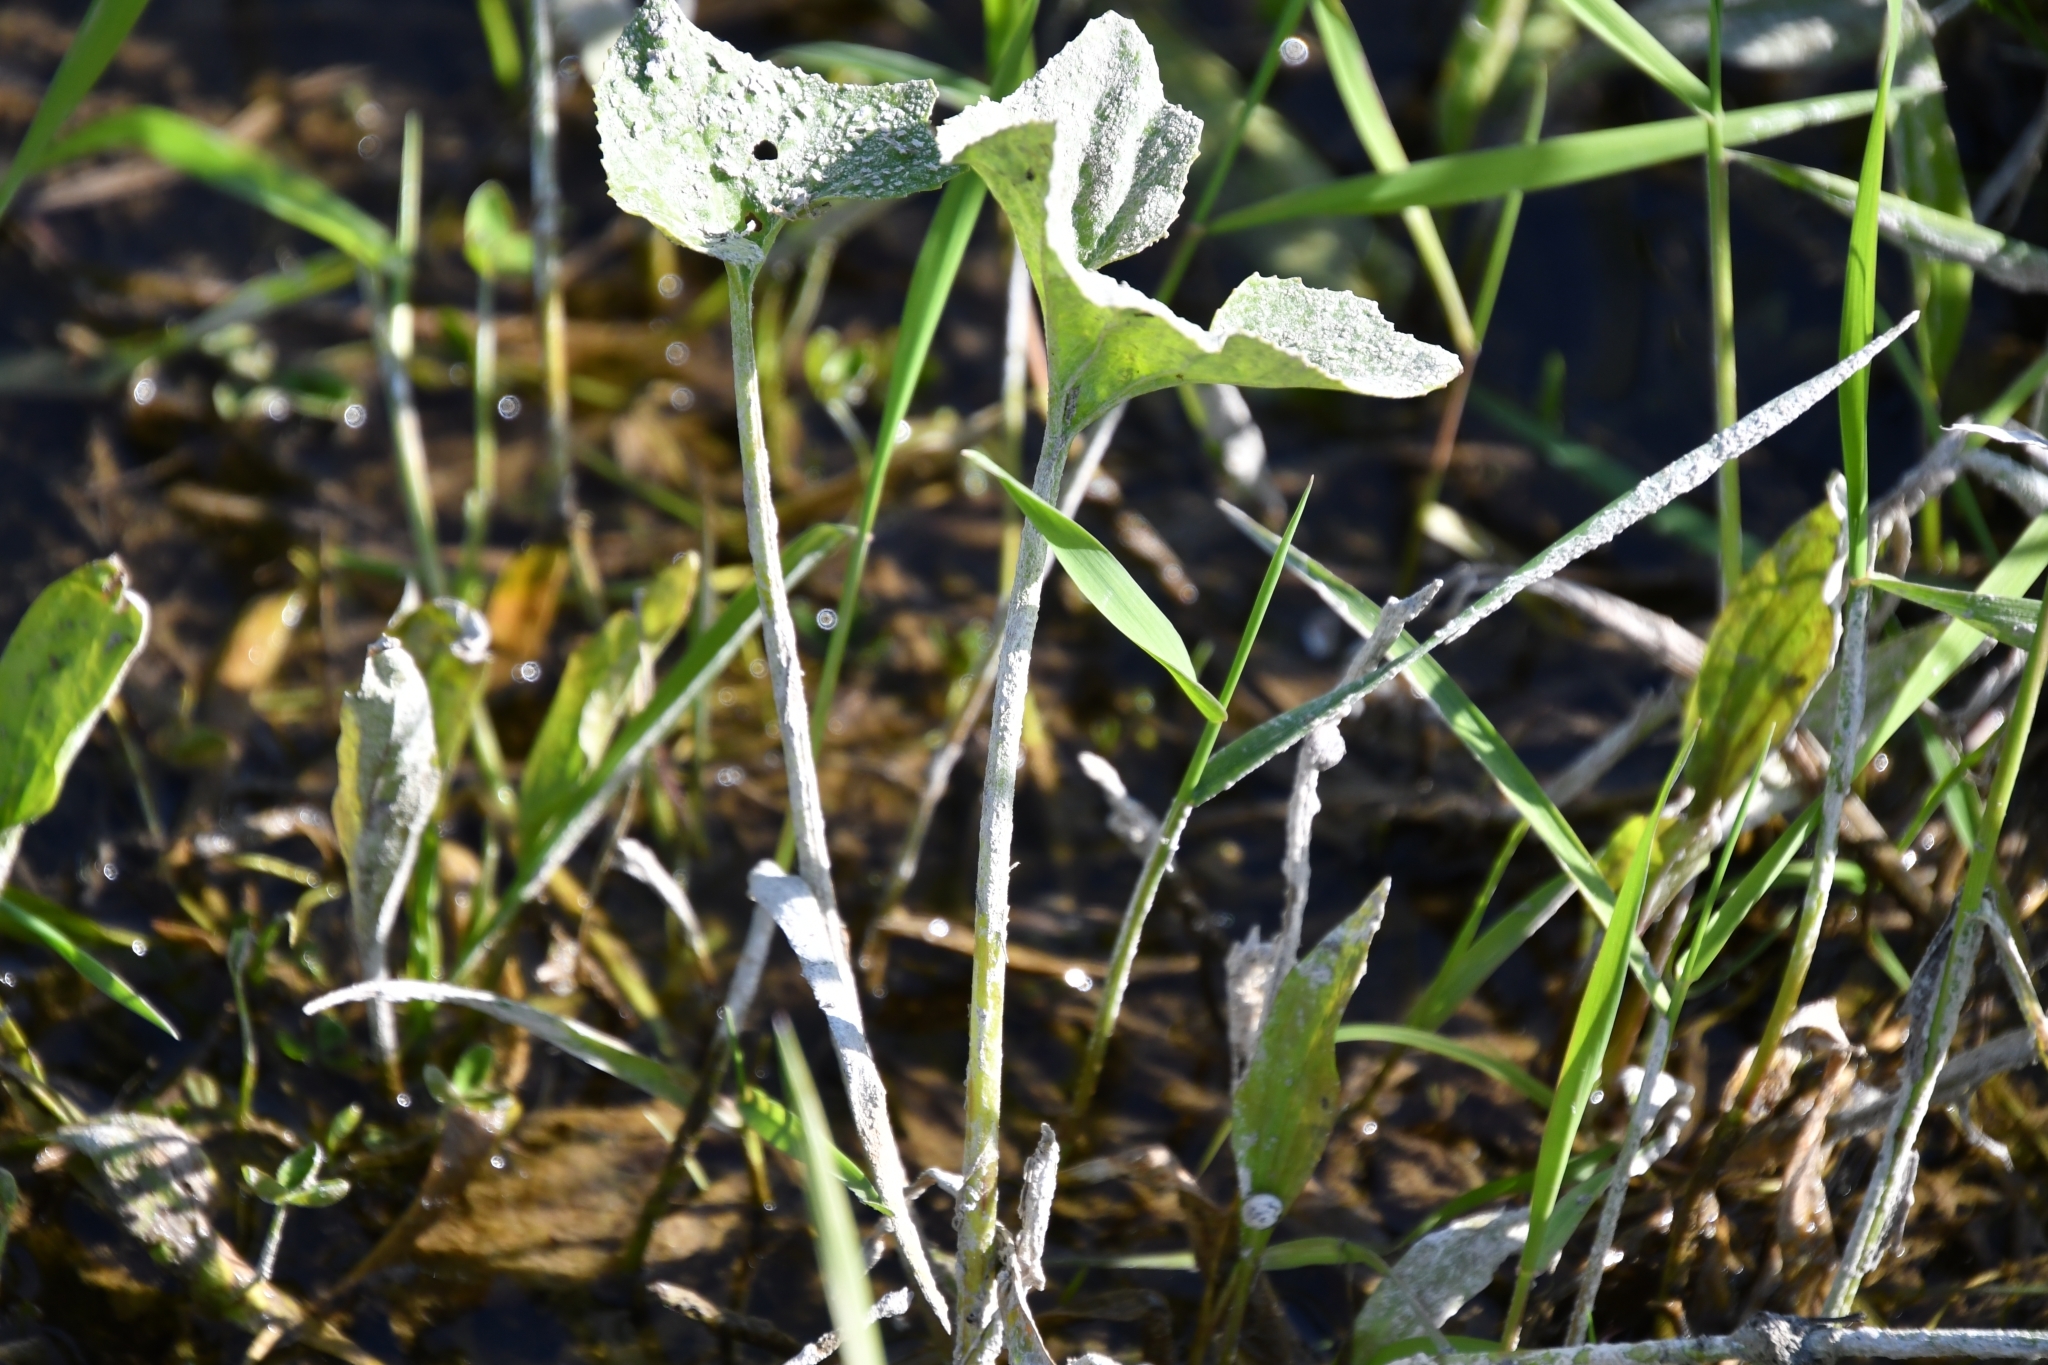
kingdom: Plantae
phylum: Tracheophyta
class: Magnoliopsida
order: Asterales
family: Asteraceae
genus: Petasites
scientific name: Petasites spurius
